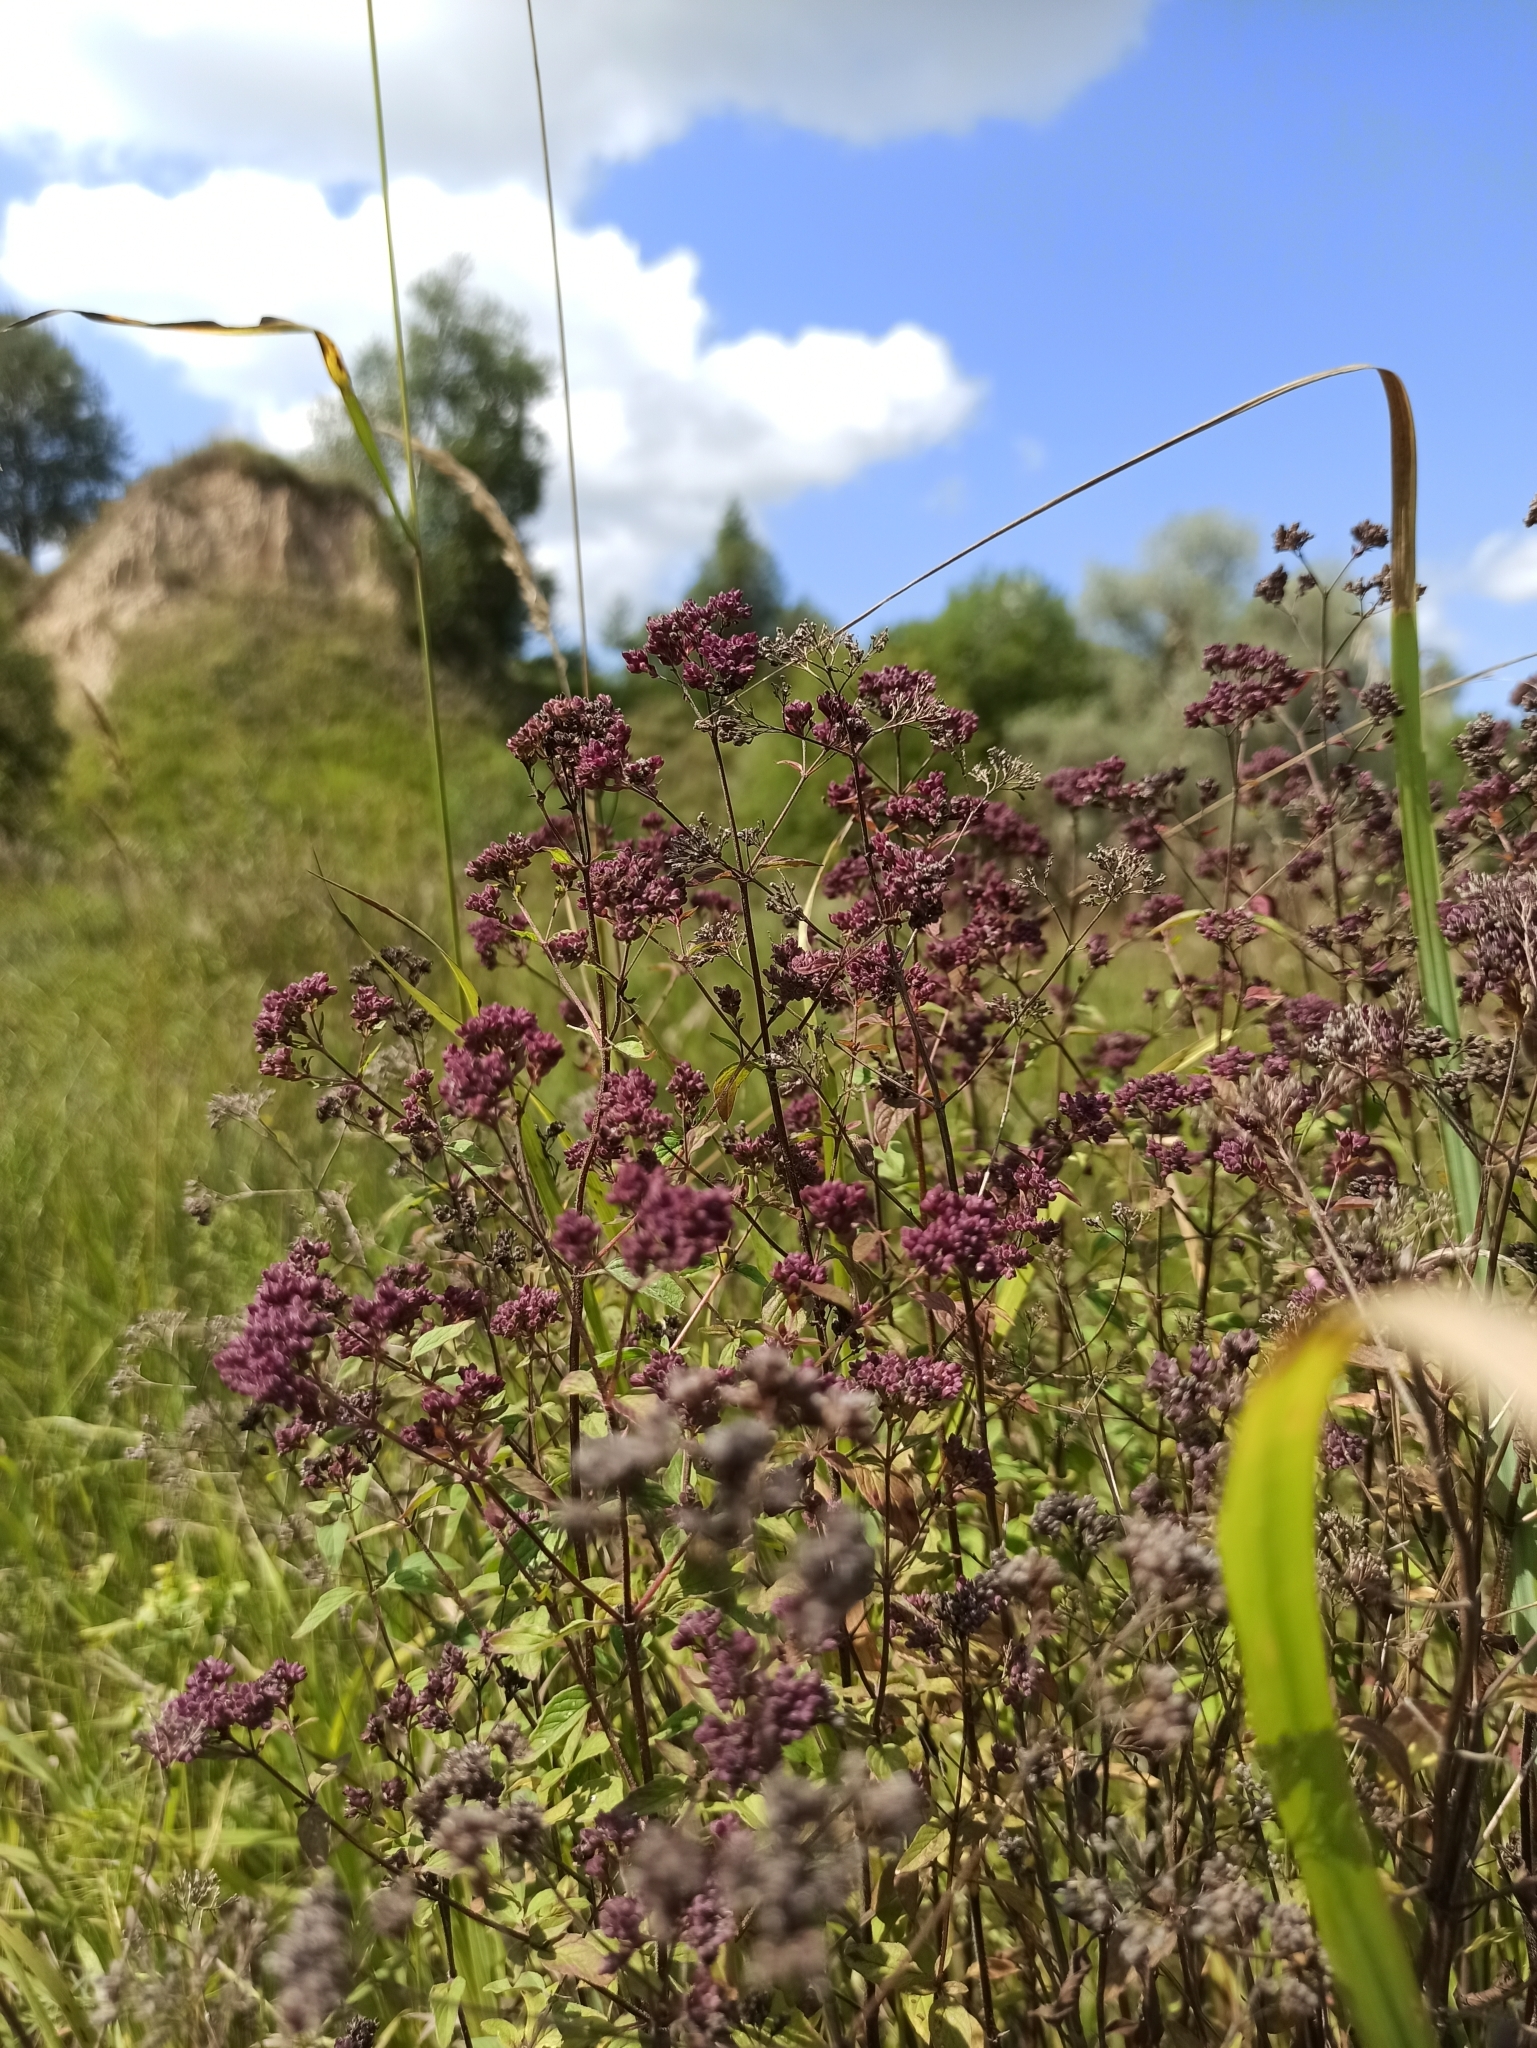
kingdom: Plantae
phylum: Tracheophyta
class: Magnoliopsida
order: Lamiales
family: Lamiaceae
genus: Origanum
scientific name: Origanum vulgare
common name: Wild marjoram
